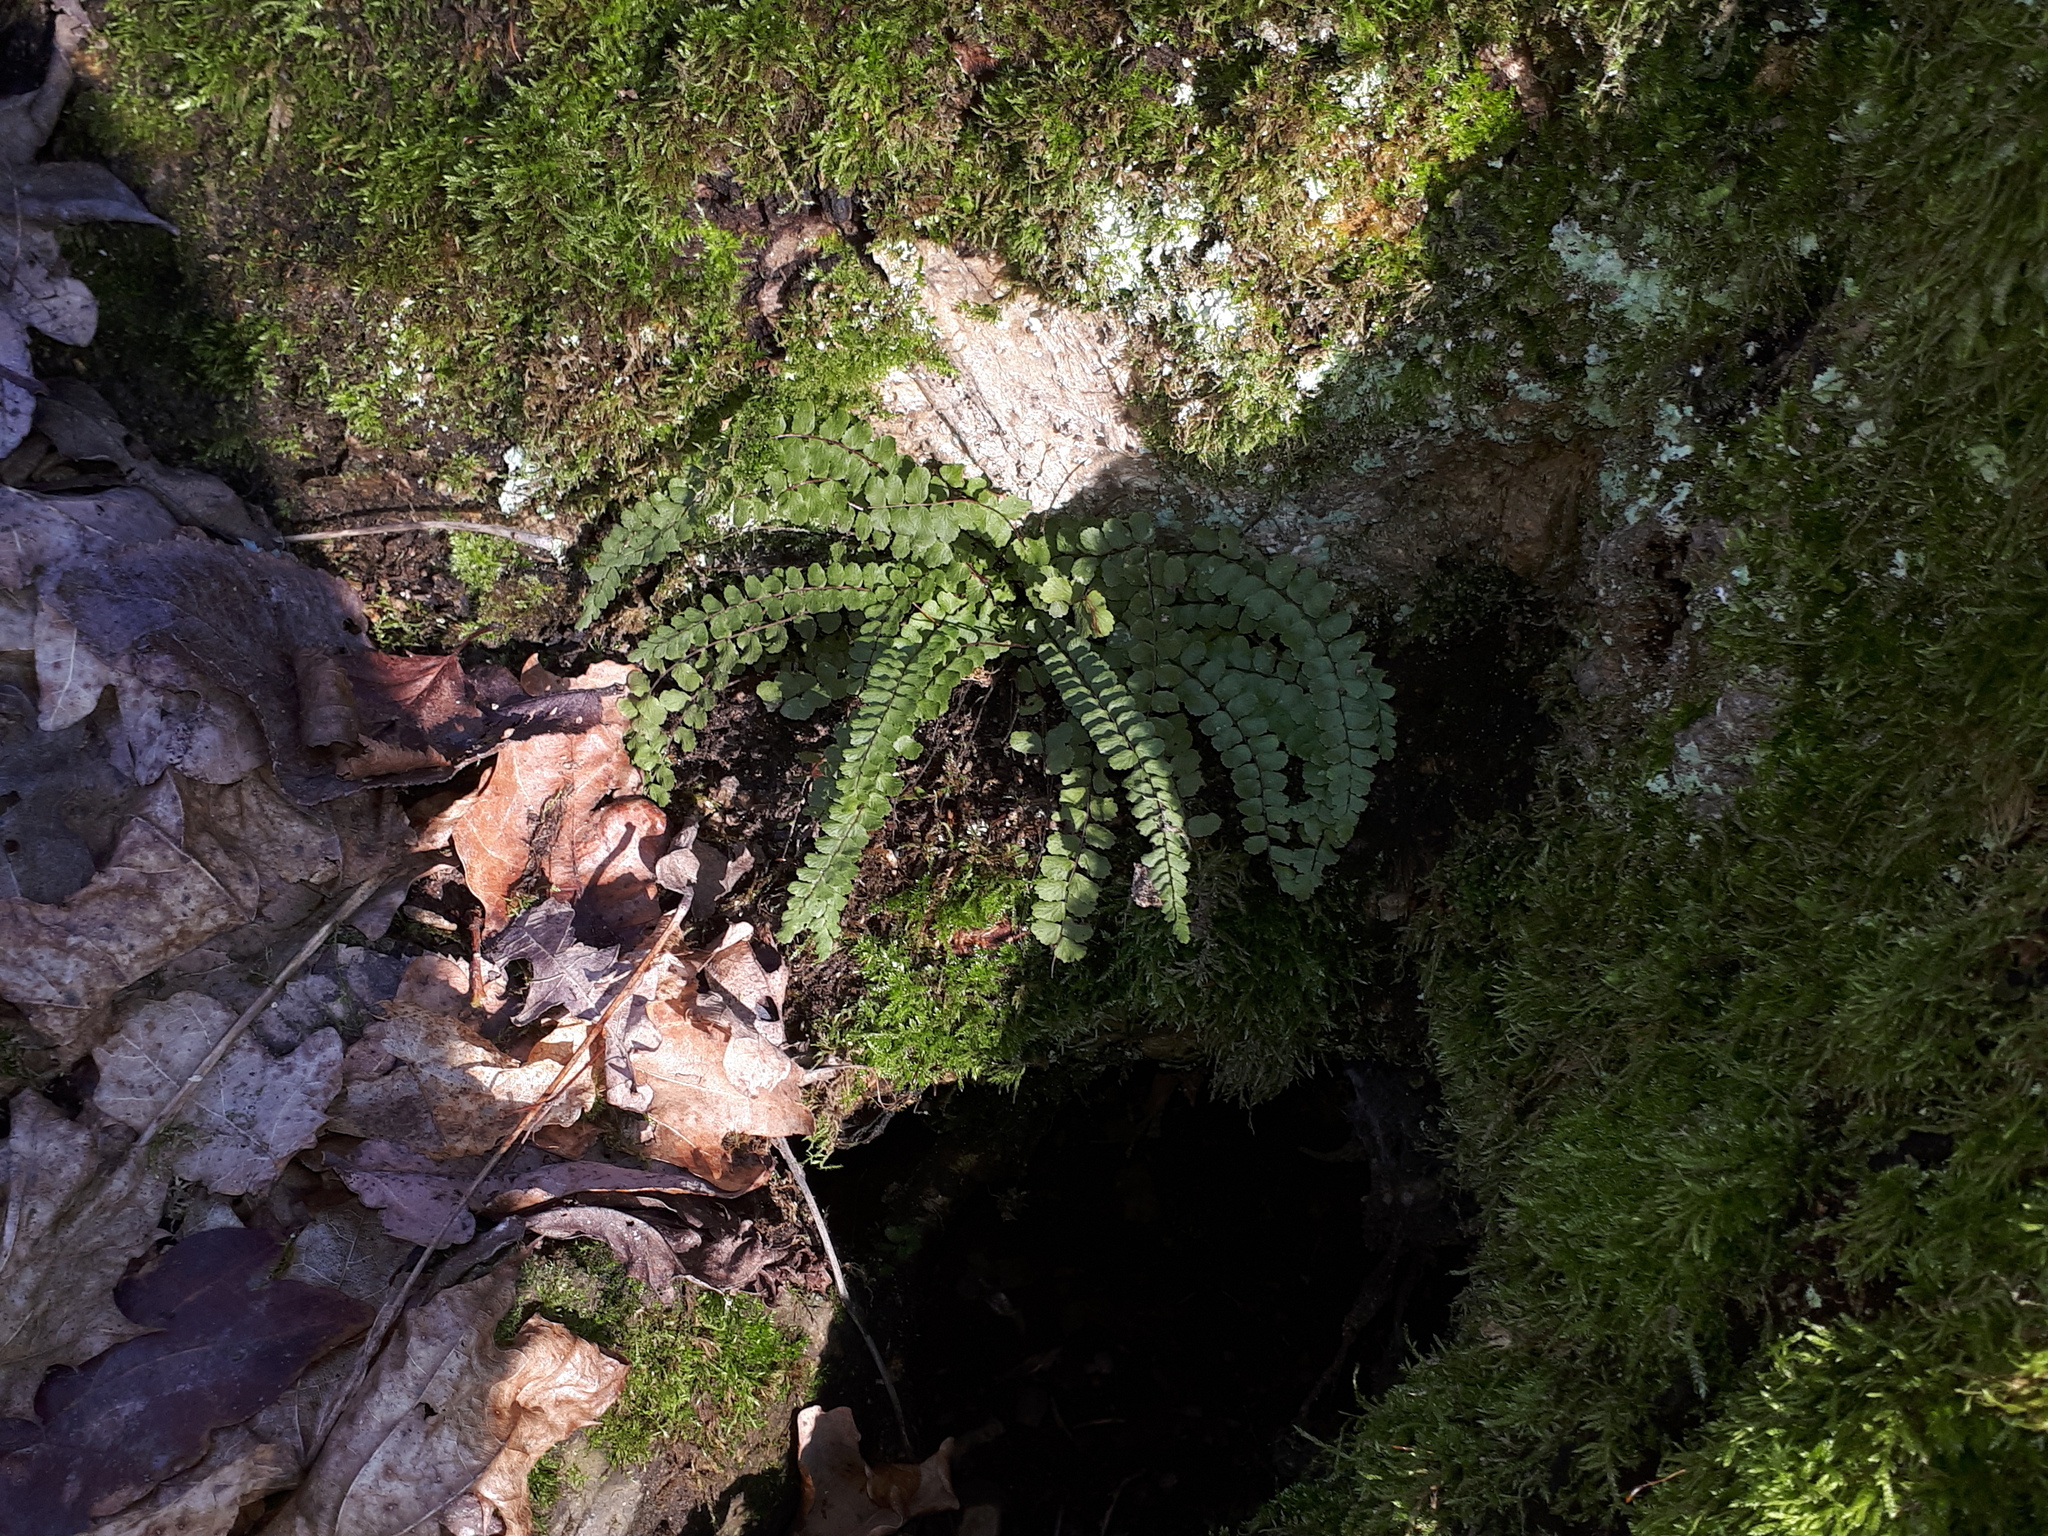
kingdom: Plantae
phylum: Tracheophyta
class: Polypodiopsida
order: Polypodiales
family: Aspleniaceae
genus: Asplenium
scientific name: Asplenium trichomanes
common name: Maidenhair spleenwort
